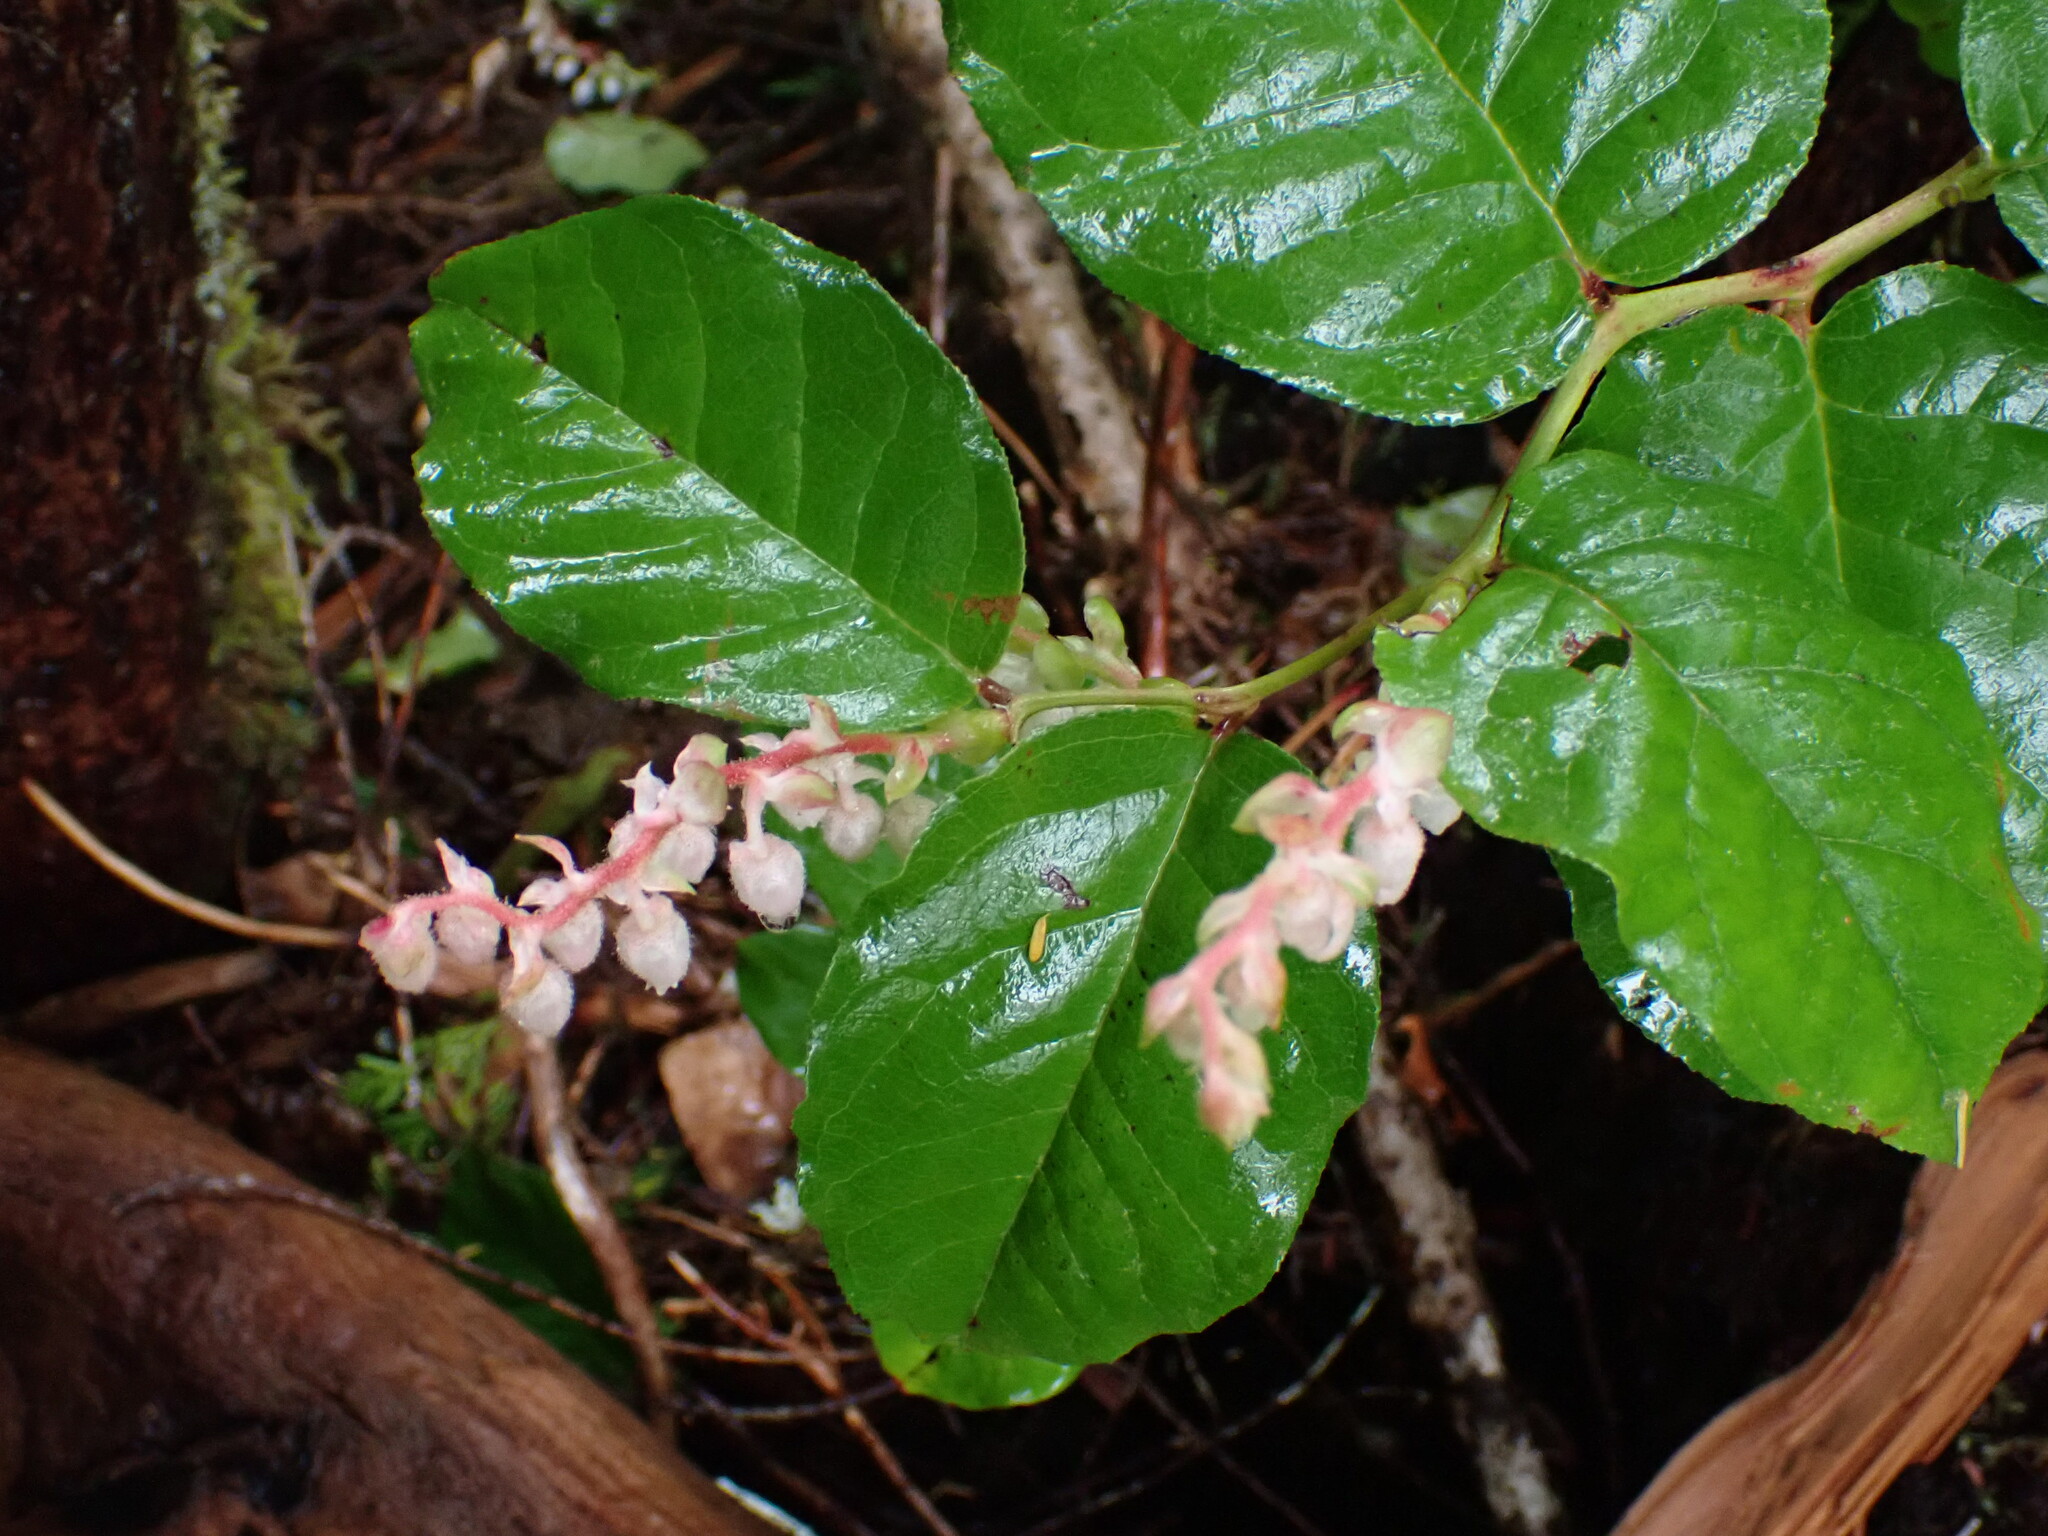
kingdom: Plantae
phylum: Tracheophyta
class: Magnoliopsida
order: Ericales
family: Ericaceae
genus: Gaultheria
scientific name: Gaultheria shallon
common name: Shallon
